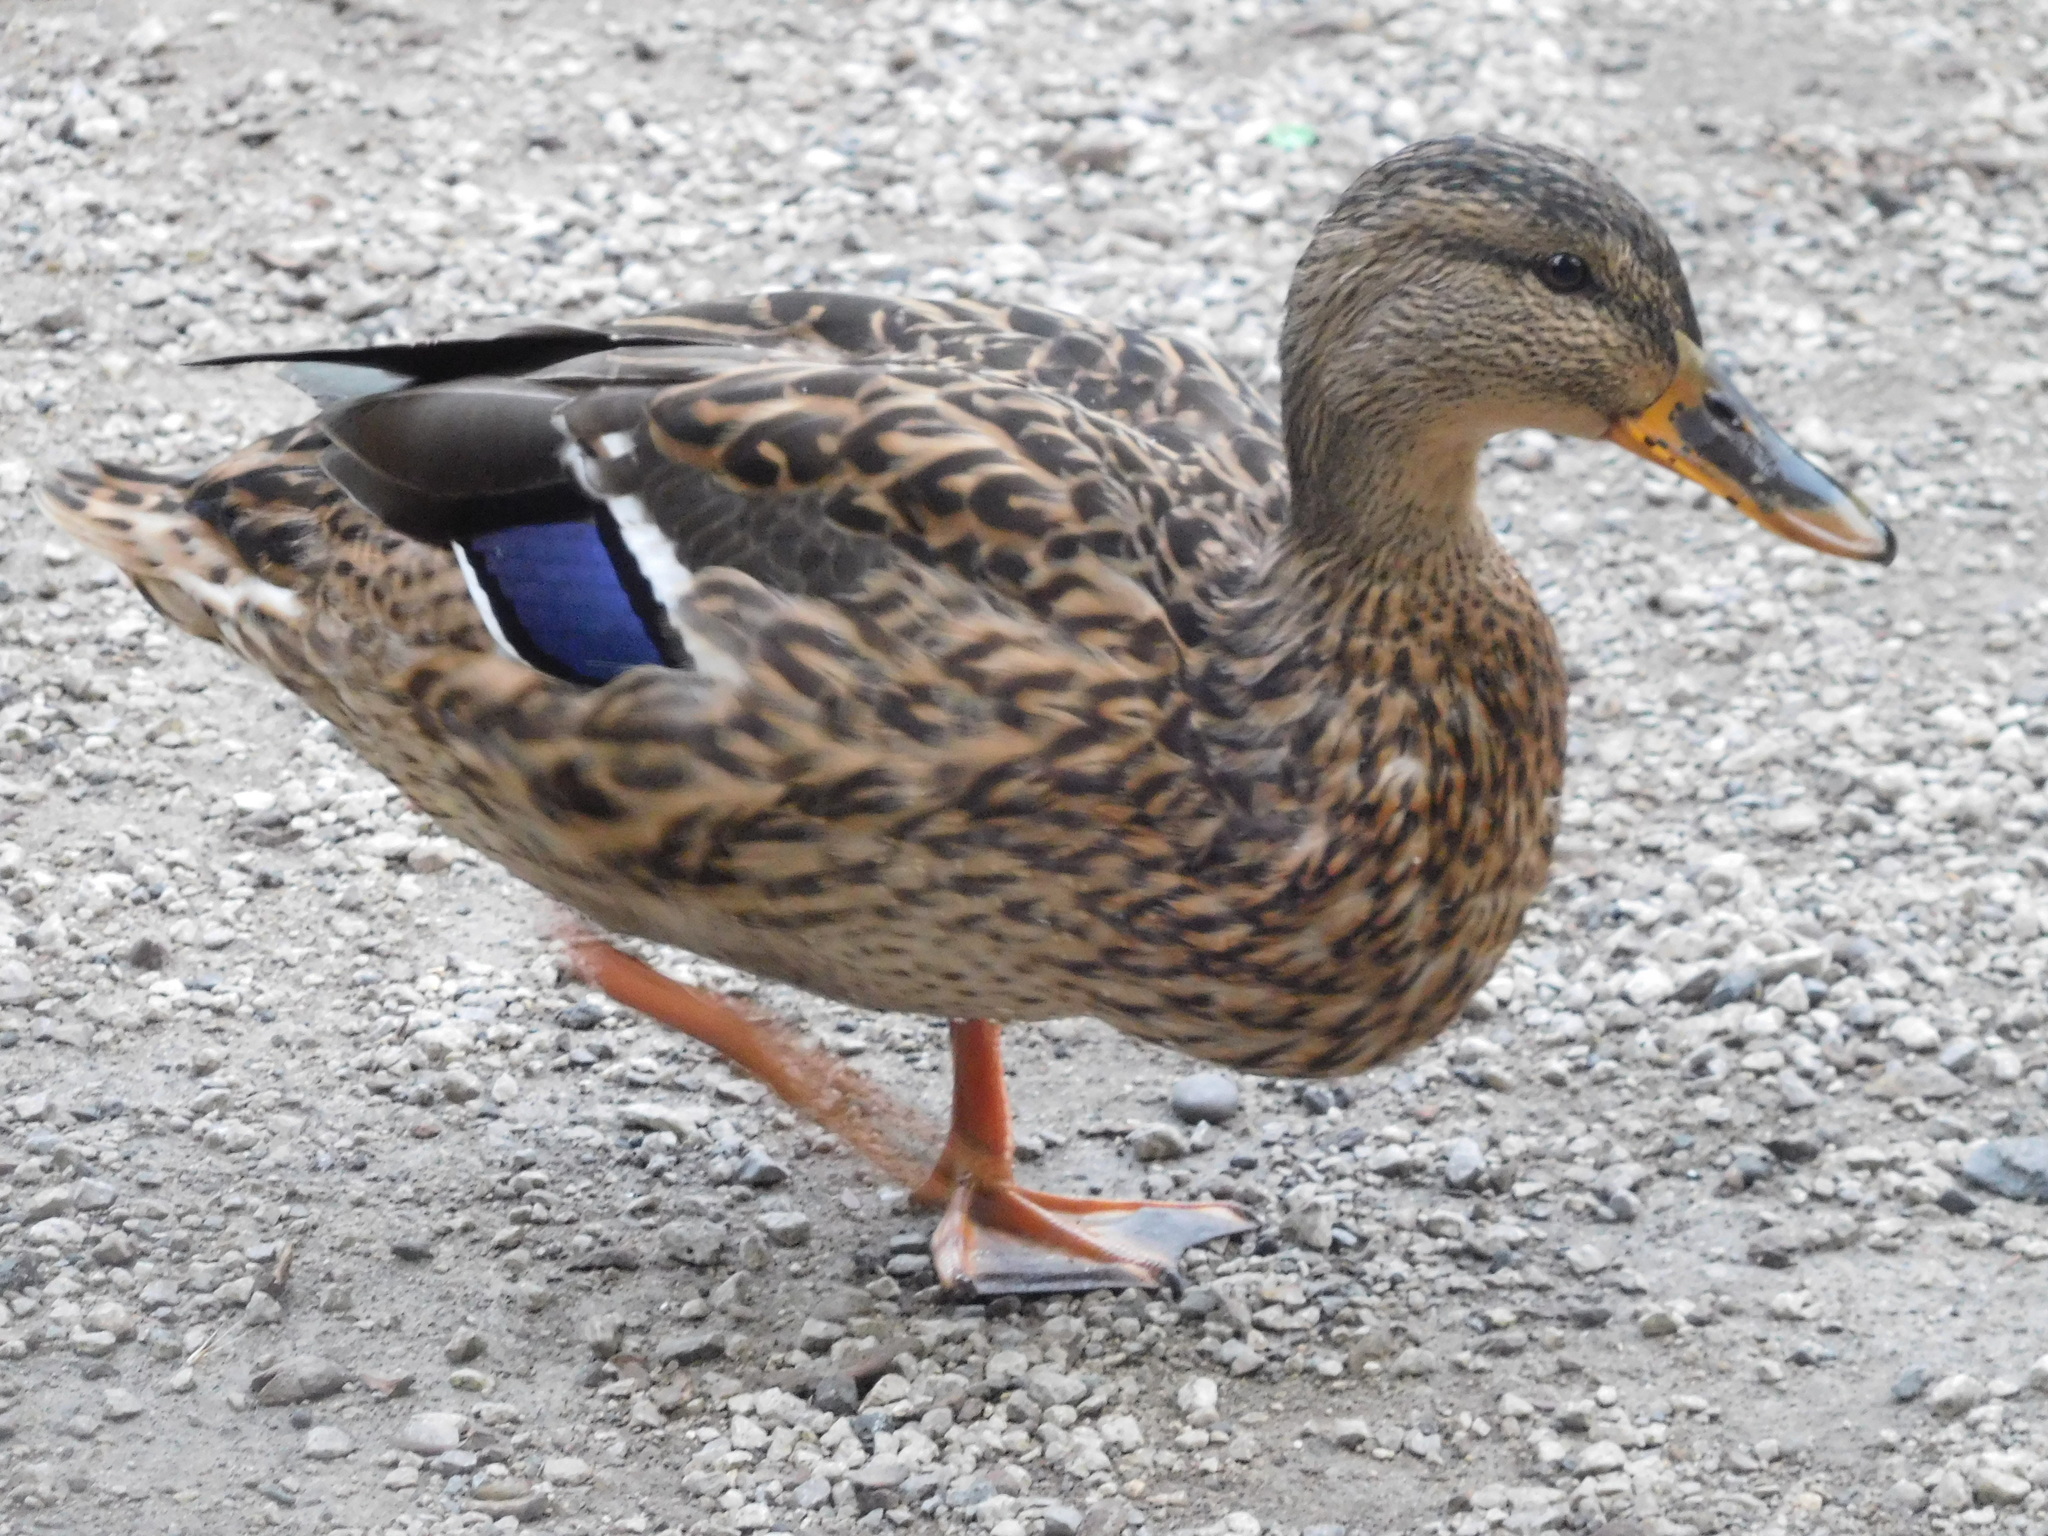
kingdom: Animalia
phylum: Chordata
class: Aves
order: Anseriformes
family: Anatidae
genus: Anas
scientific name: Anas platyrhynchos
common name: Mallard
